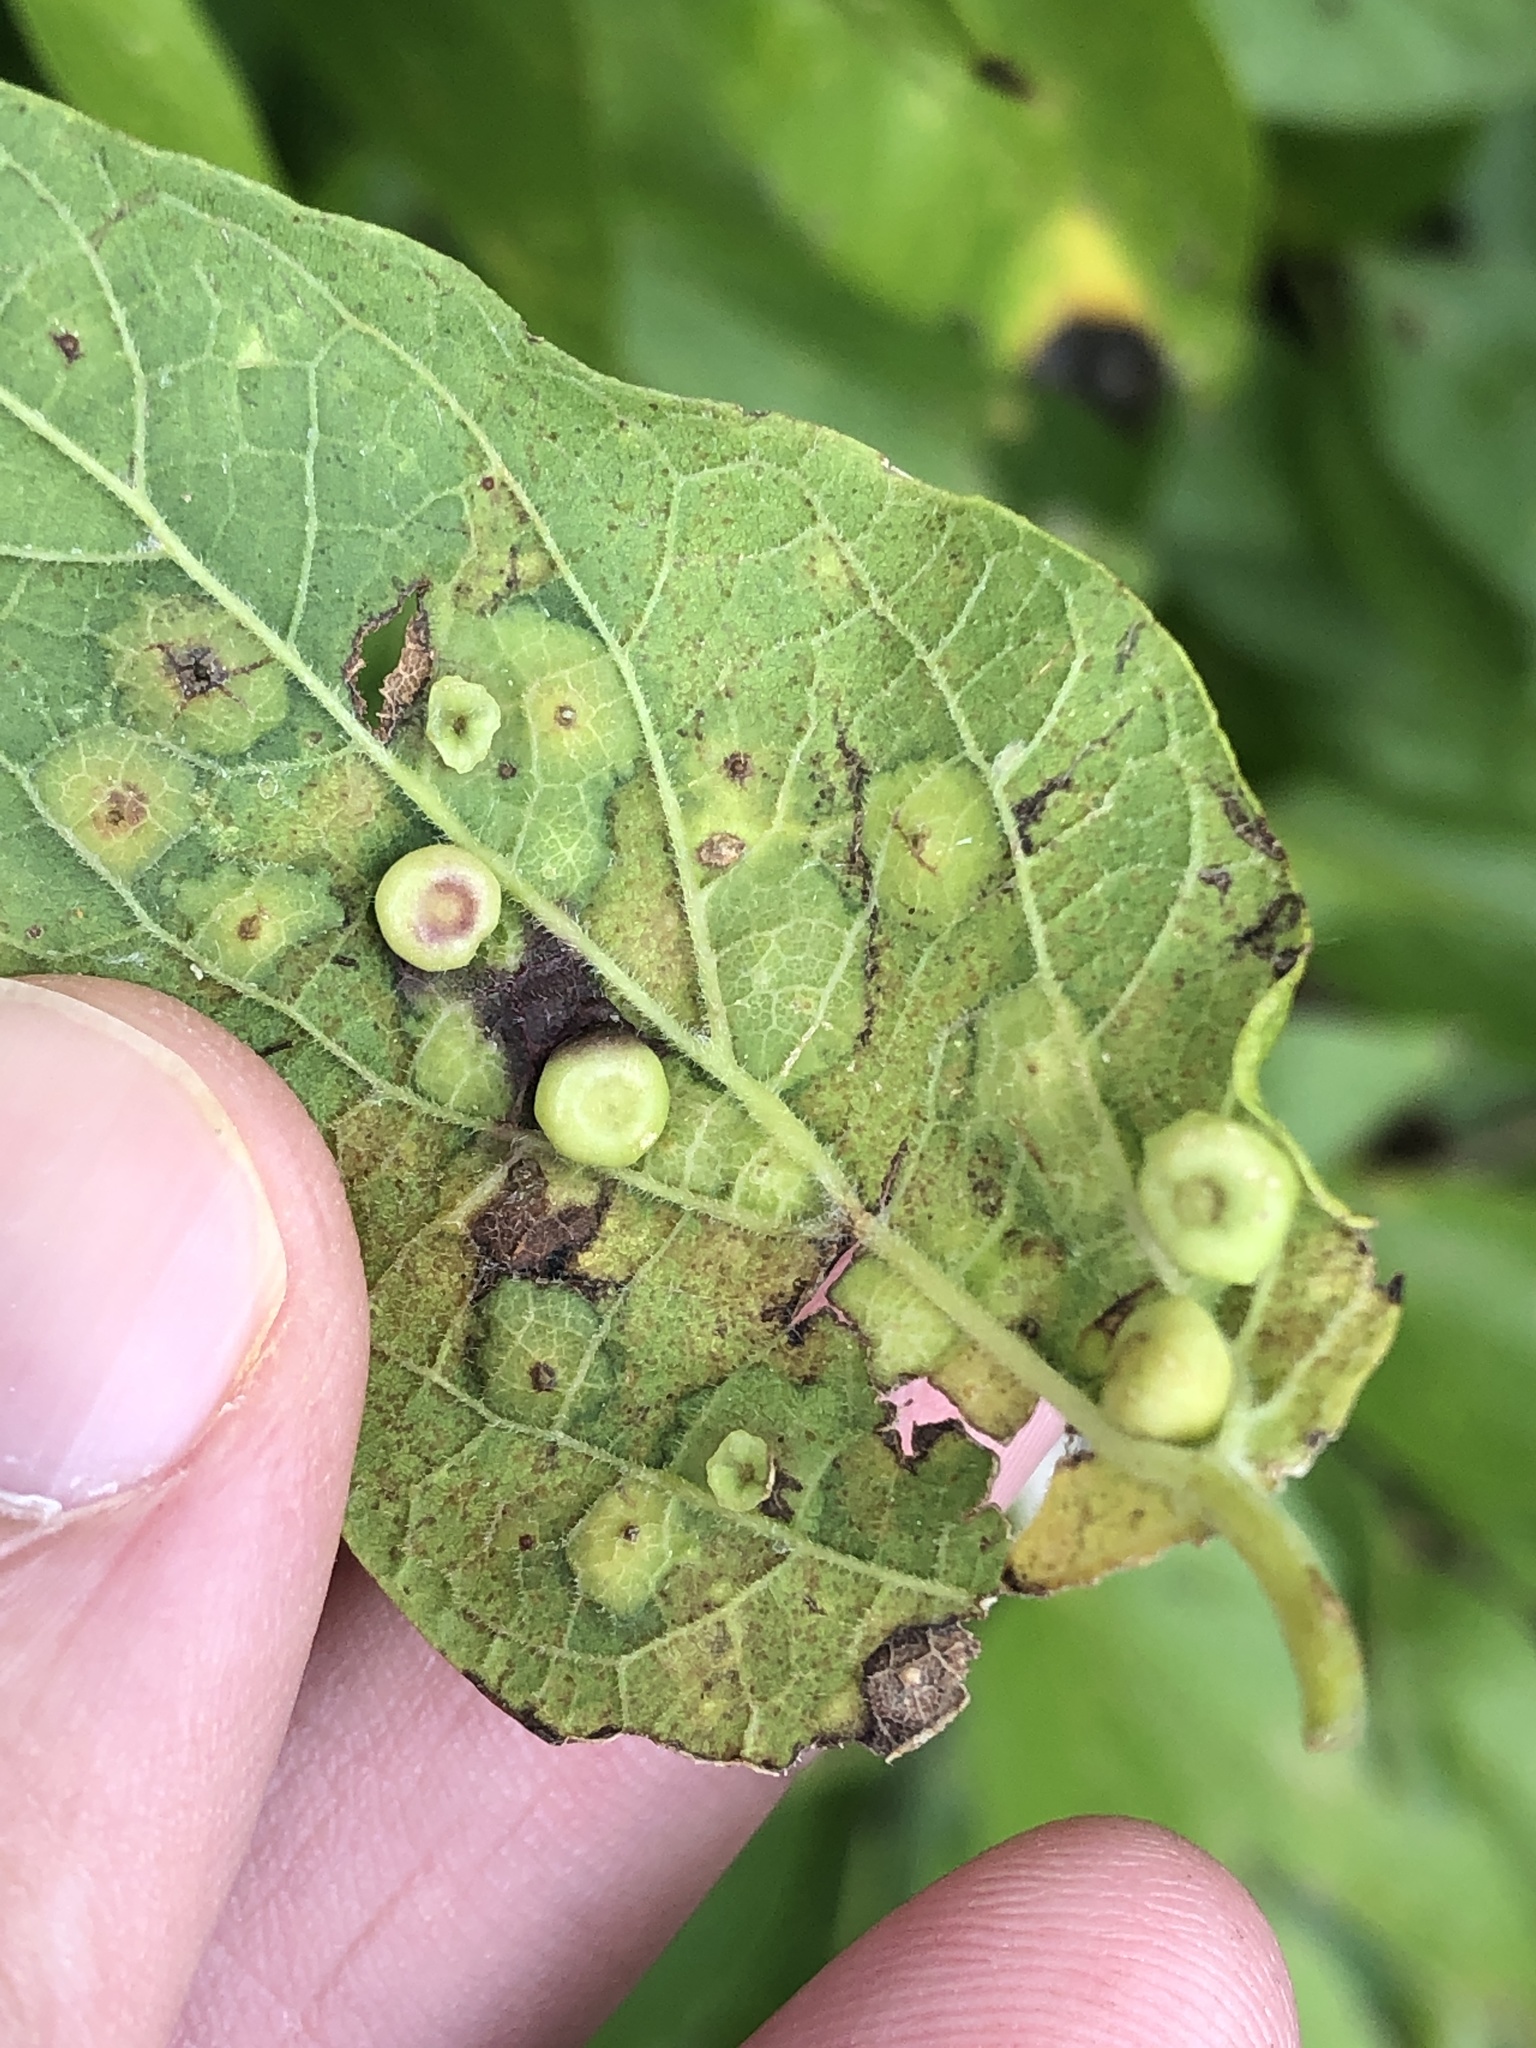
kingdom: Animalia
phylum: Arthropoda
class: Insecta
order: Hemiptera
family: Aphalaridae
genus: Pachypsylla
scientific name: Pachypsylla celtidismamma
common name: Hackberry nipplegall psyllid
